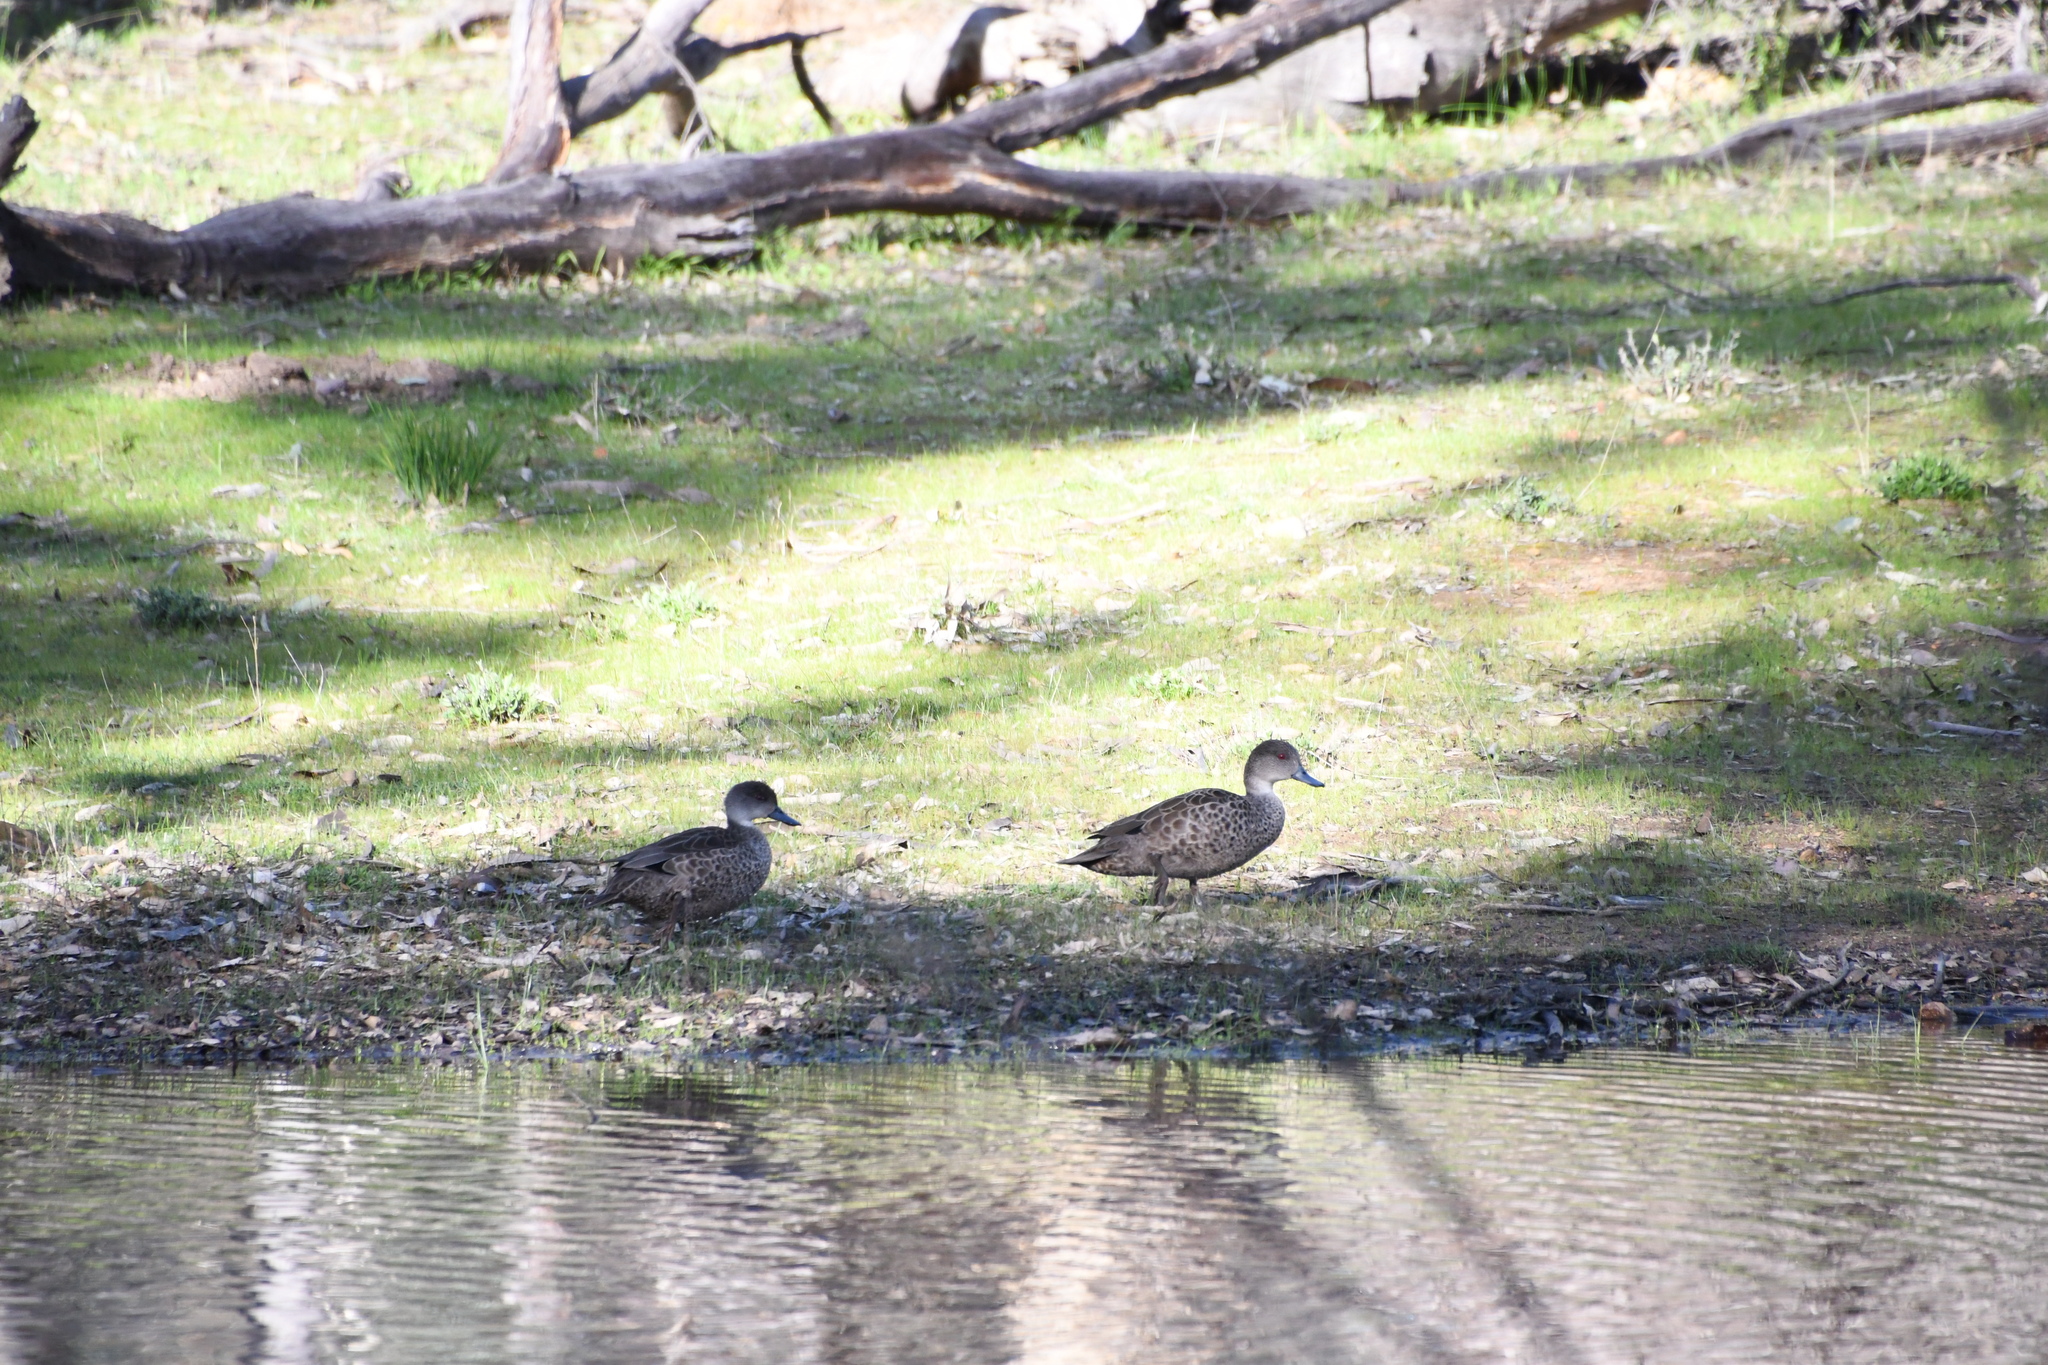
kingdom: Animalia
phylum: Chordata
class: Aves
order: Anseriformes
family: Anatidae
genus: Anas
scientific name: Anas gracilis
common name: Grey teal
